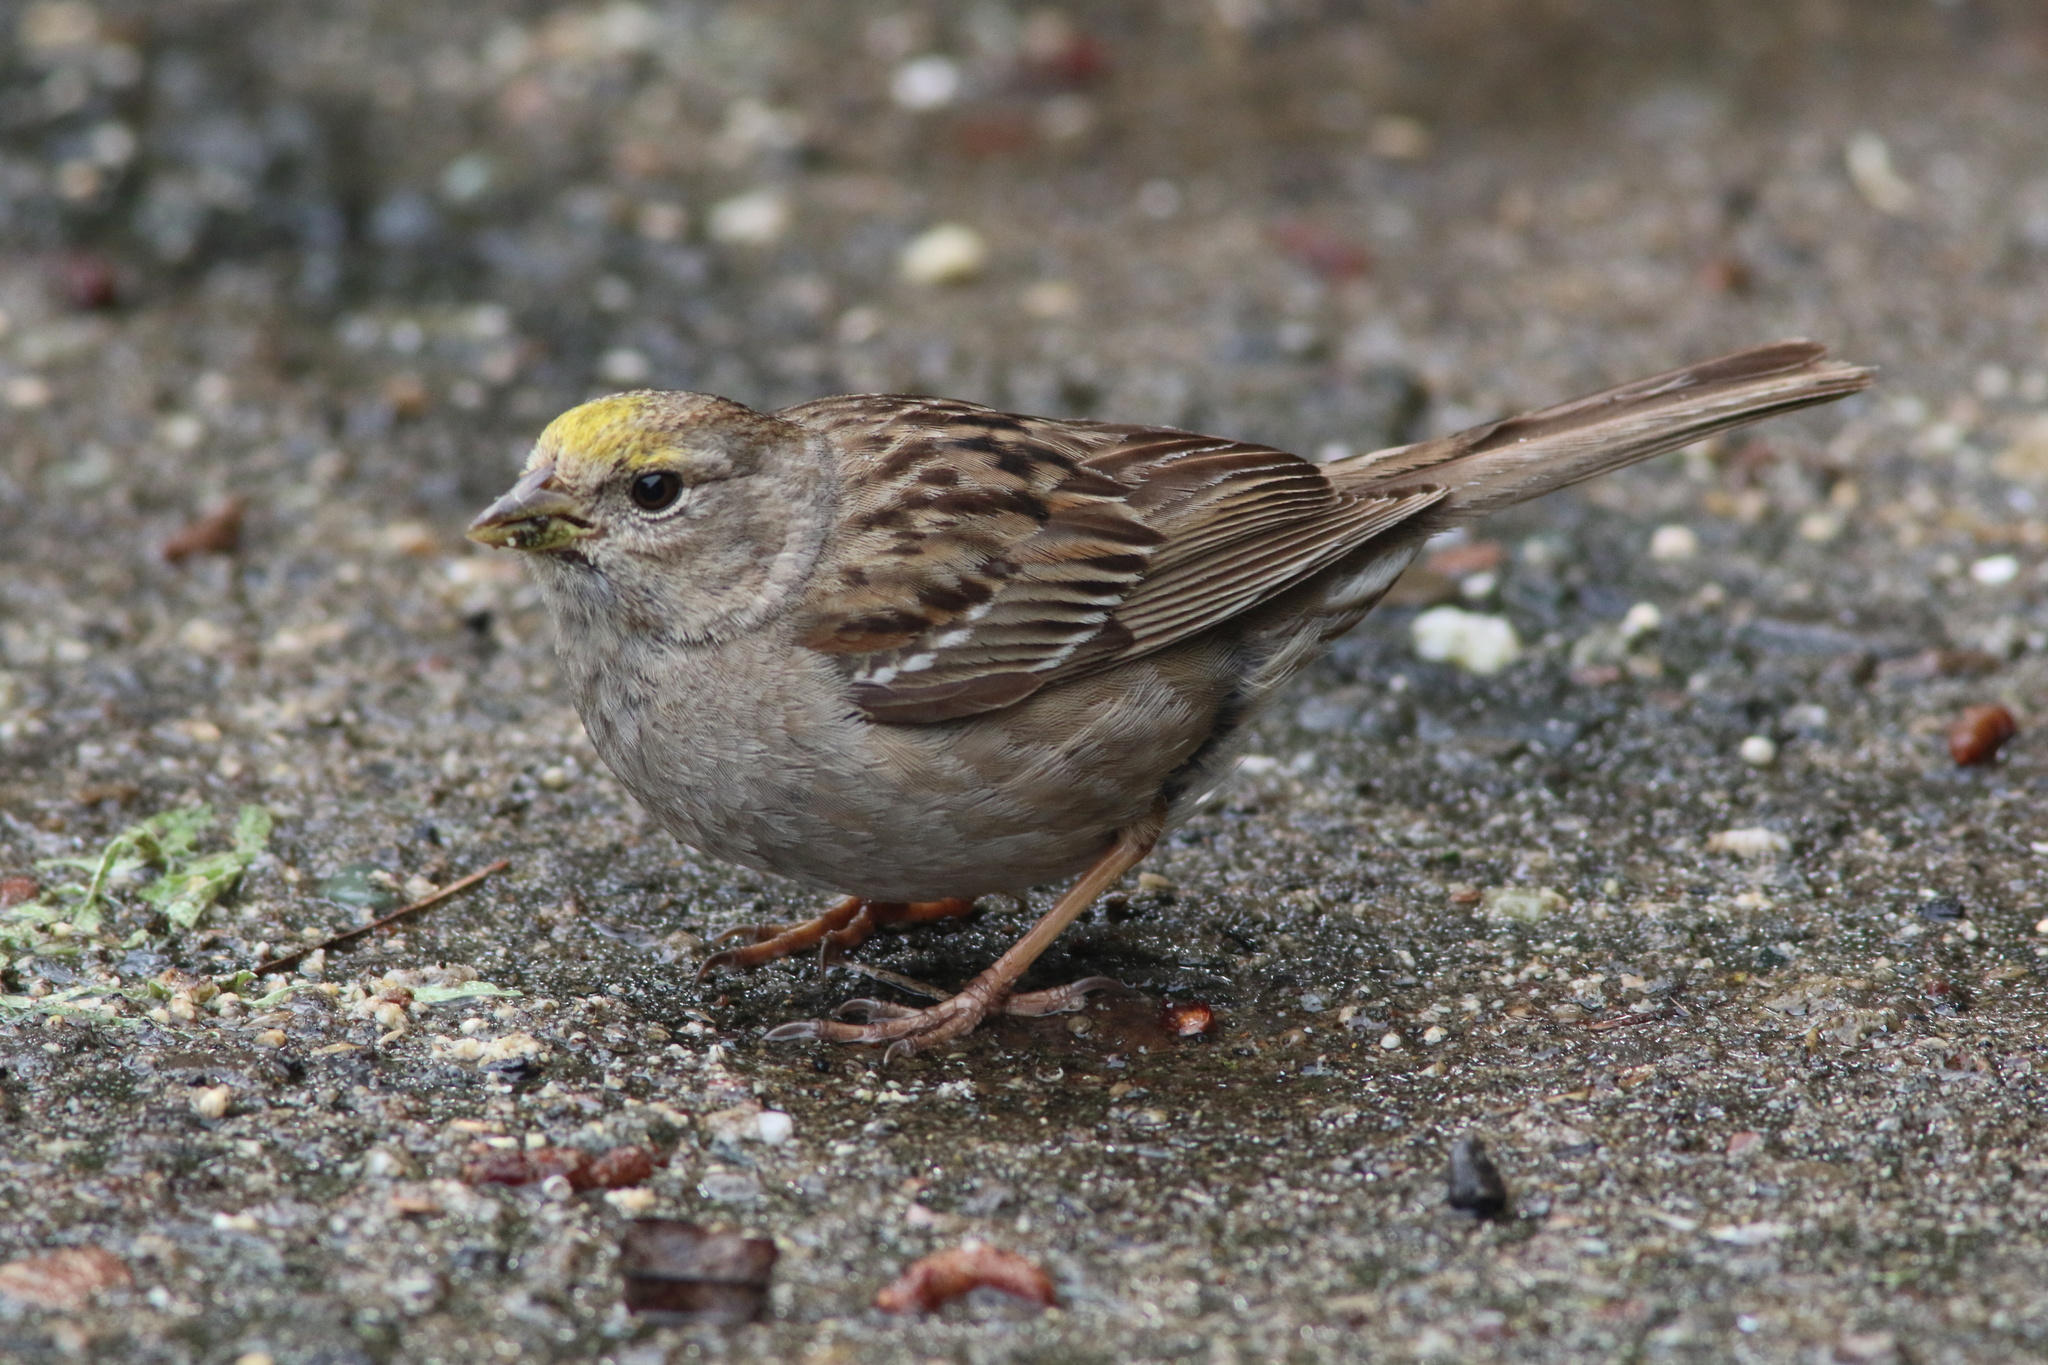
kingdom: Animalia
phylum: Chordata
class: Aves
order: Passeriformes
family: Passerellidae
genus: Zonotrichia
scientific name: Zonotrichia atricapilla
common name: Golden-crowned sparrow
